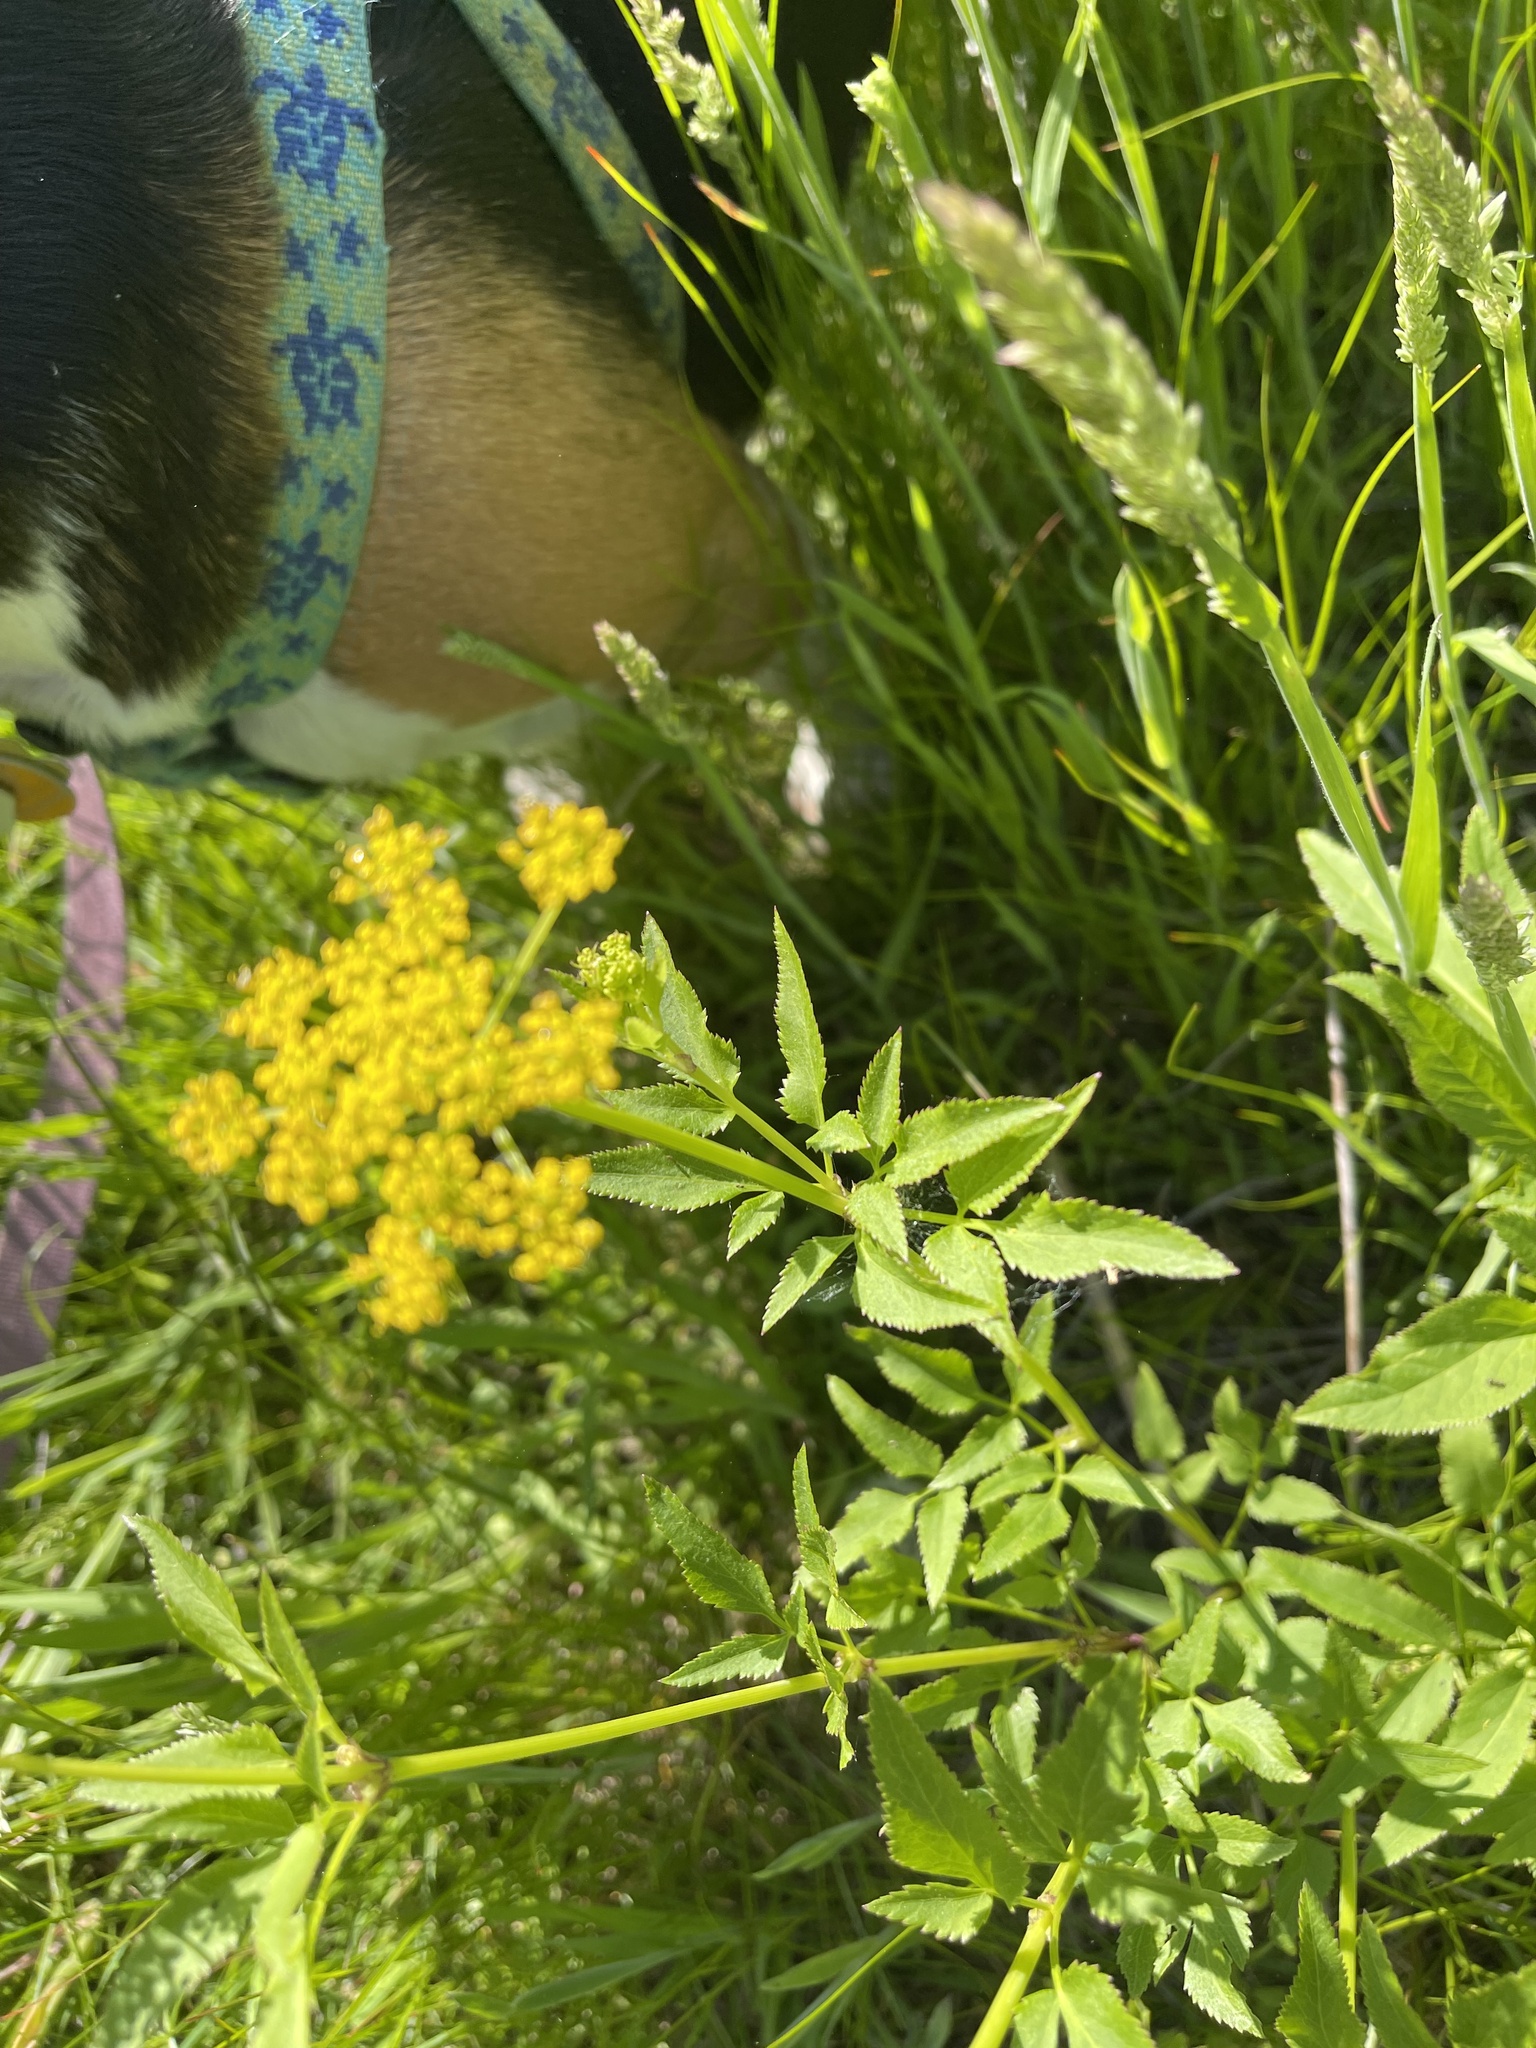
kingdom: Plantae
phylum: Tracheophyta
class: Magnoliopsida
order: Apiales
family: Apiaceae
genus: Zizia
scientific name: Zizia aurea
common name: Golden alexanders
